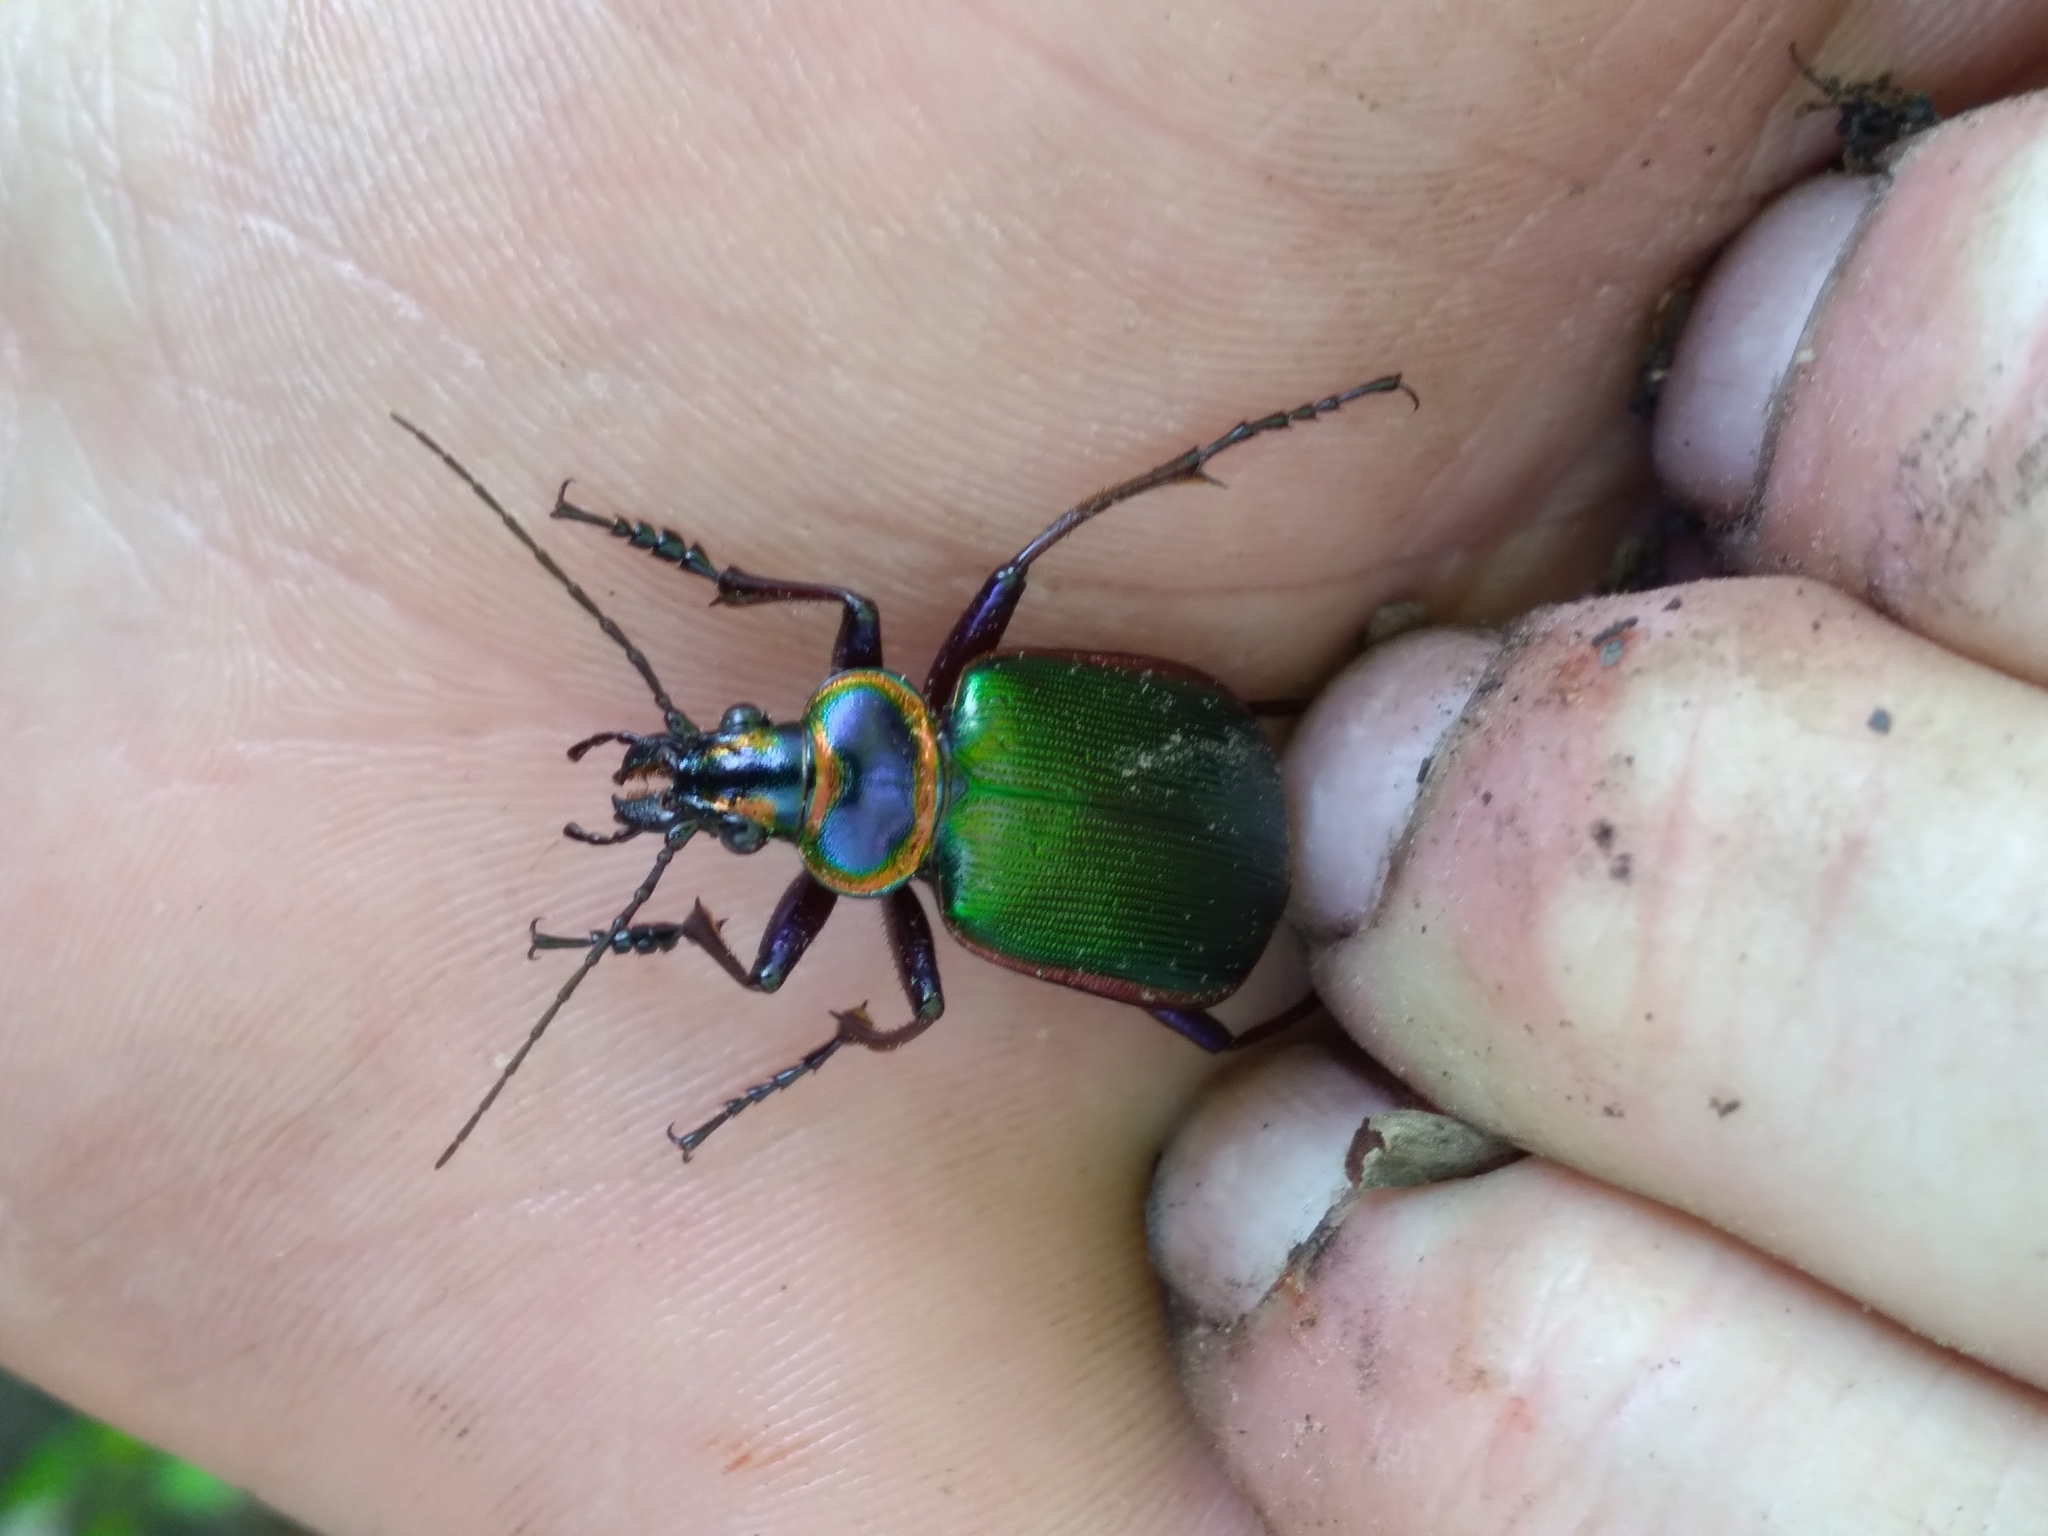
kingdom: Animalia
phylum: Arthropoda
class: Insecta
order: Coleoptera
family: Carabidae
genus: Calosoma
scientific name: Calosoma scrutator
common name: Fiery searcher beetle
